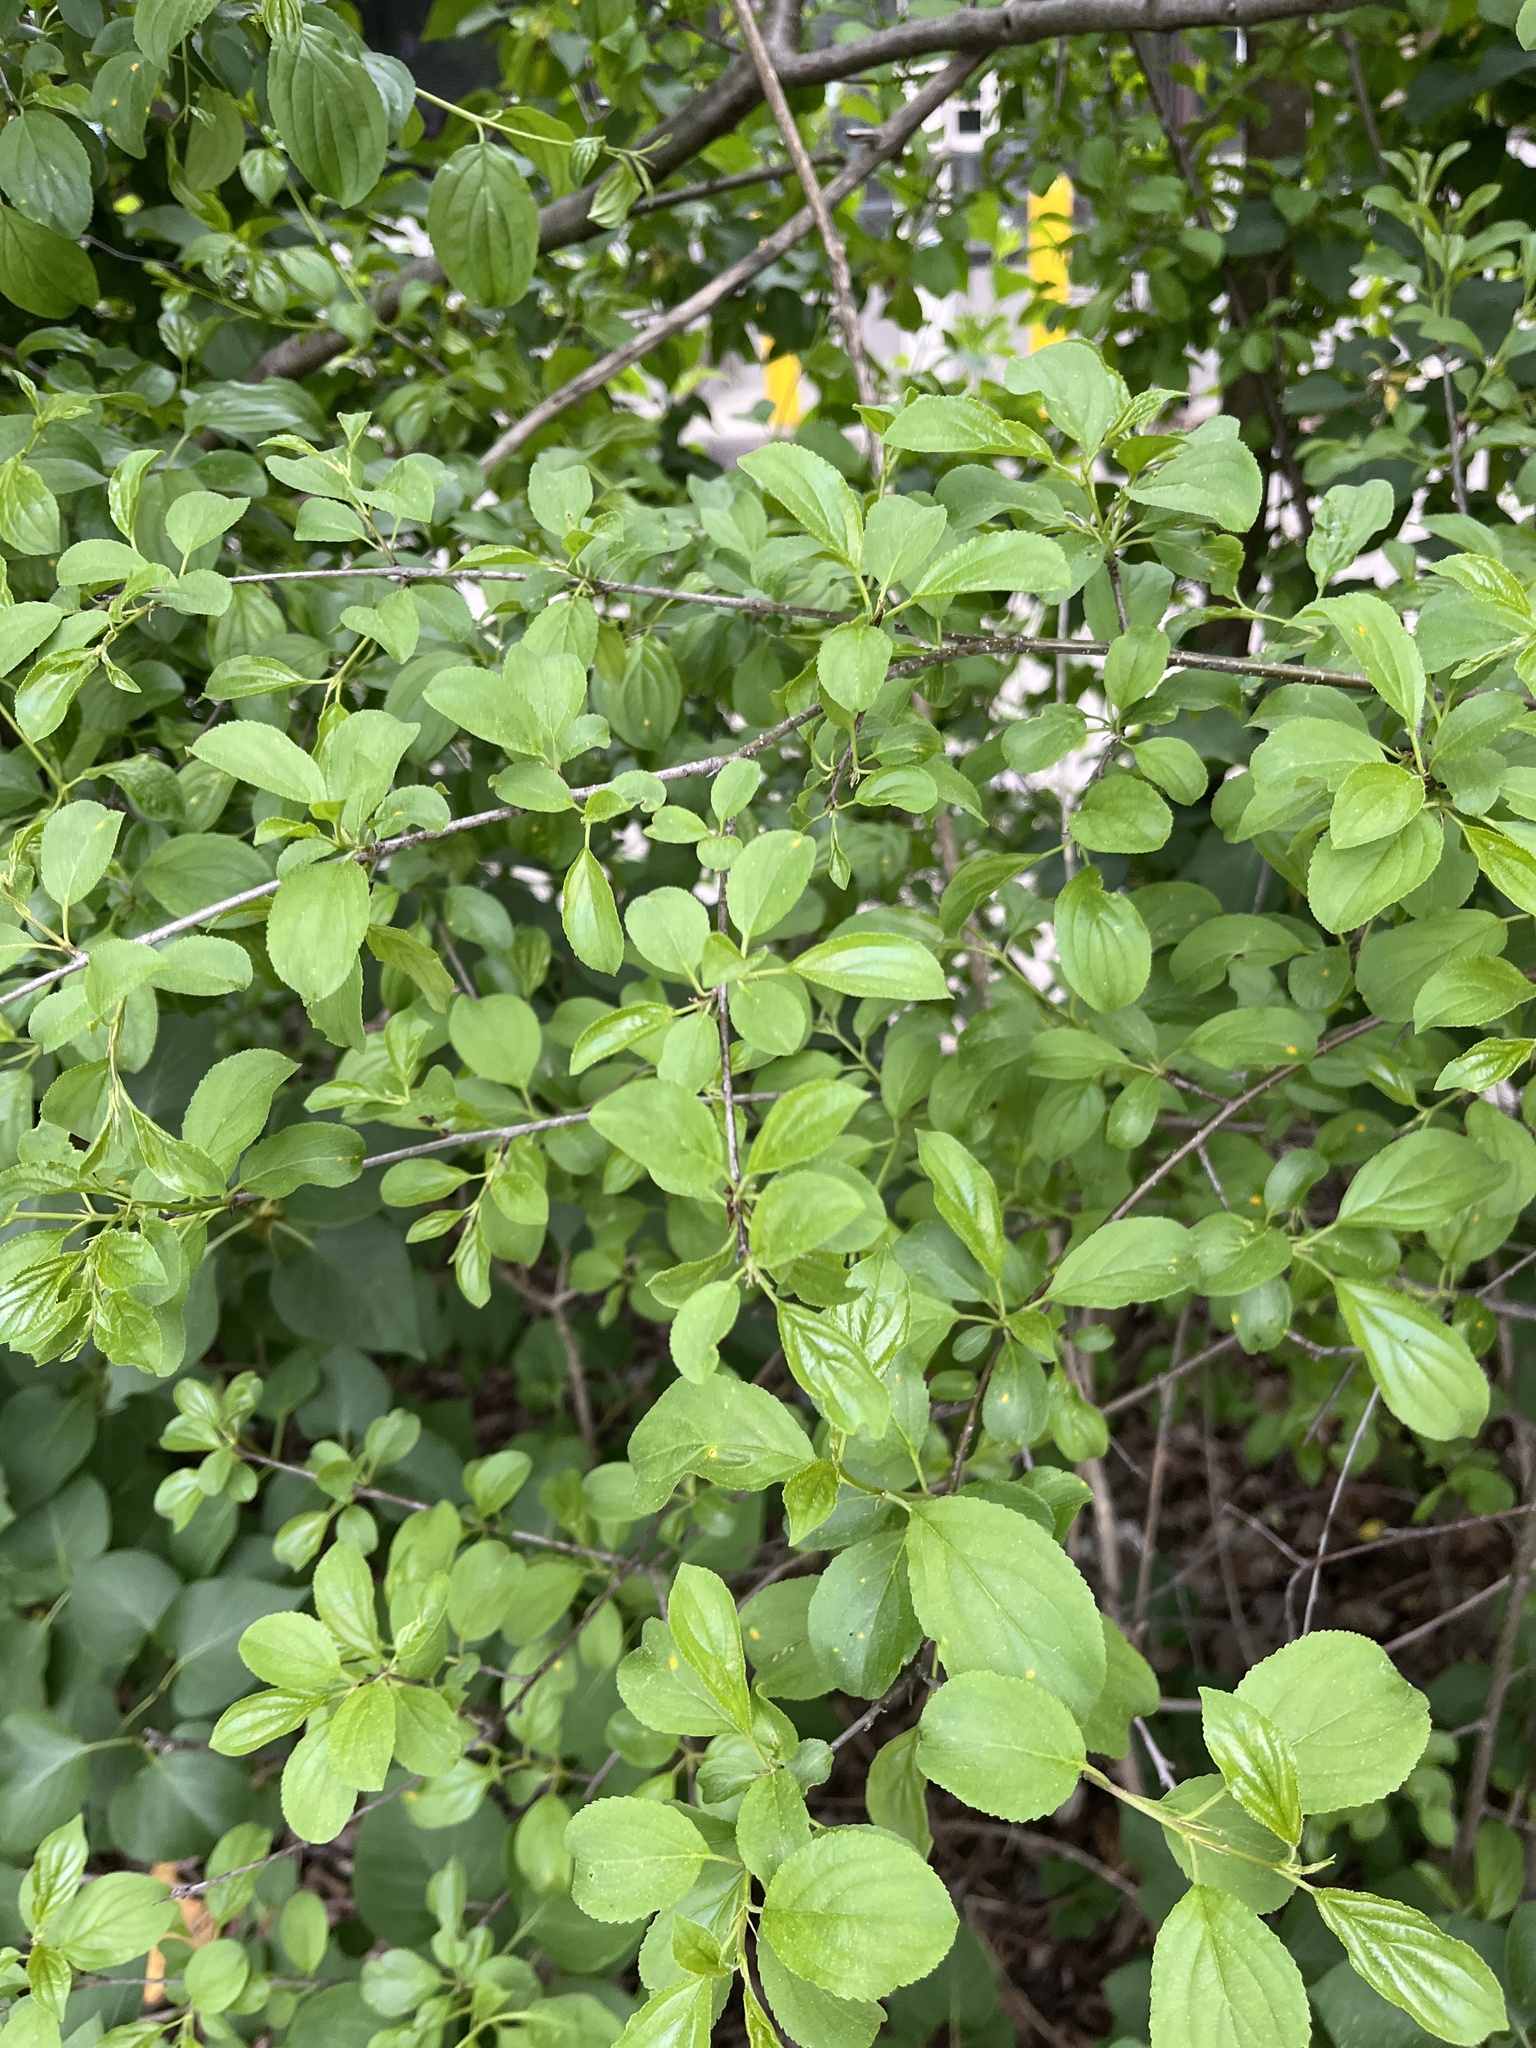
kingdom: Plantae
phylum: Tracheophyta
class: Magnoliopsida
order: Rosales
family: Rhamnaceae
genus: Rhamnus
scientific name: Rhamnus cathartica
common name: Common buckthorn
